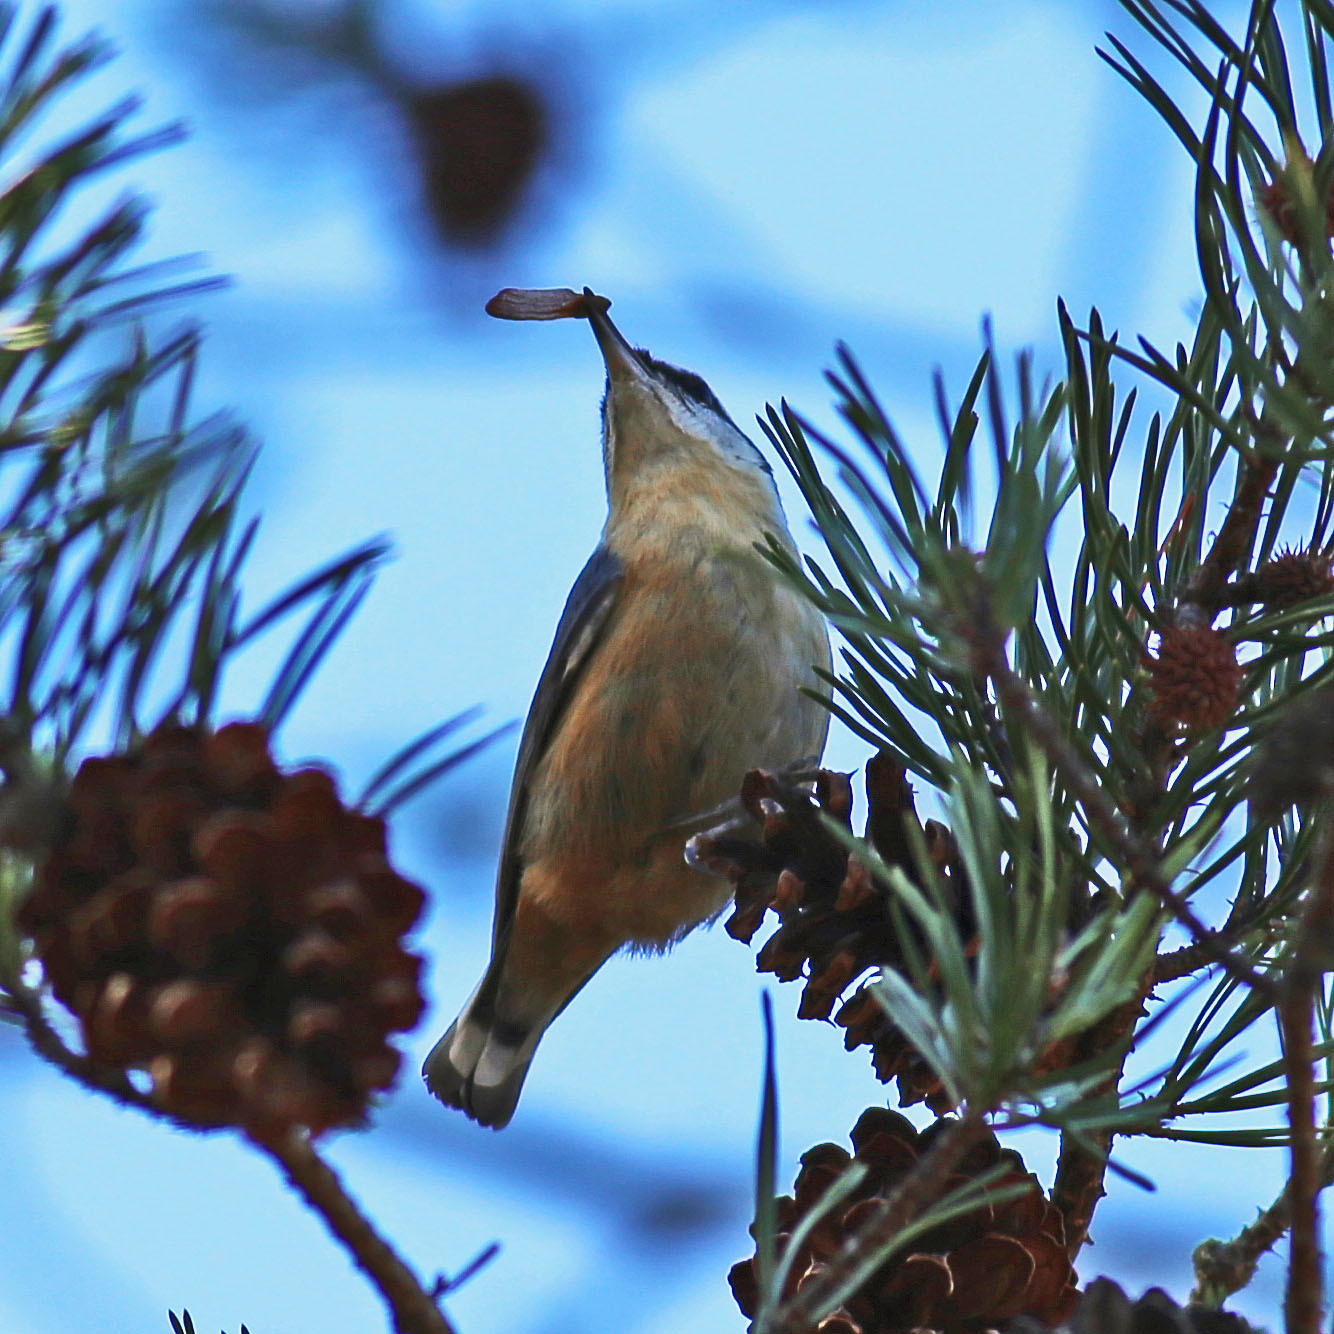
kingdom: Animalia
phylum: Chordata
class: Aves
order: Passeriformes
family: Sittidae
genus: Sitta
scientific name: Sitta canadensis
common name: Red-breasted nuthatch
